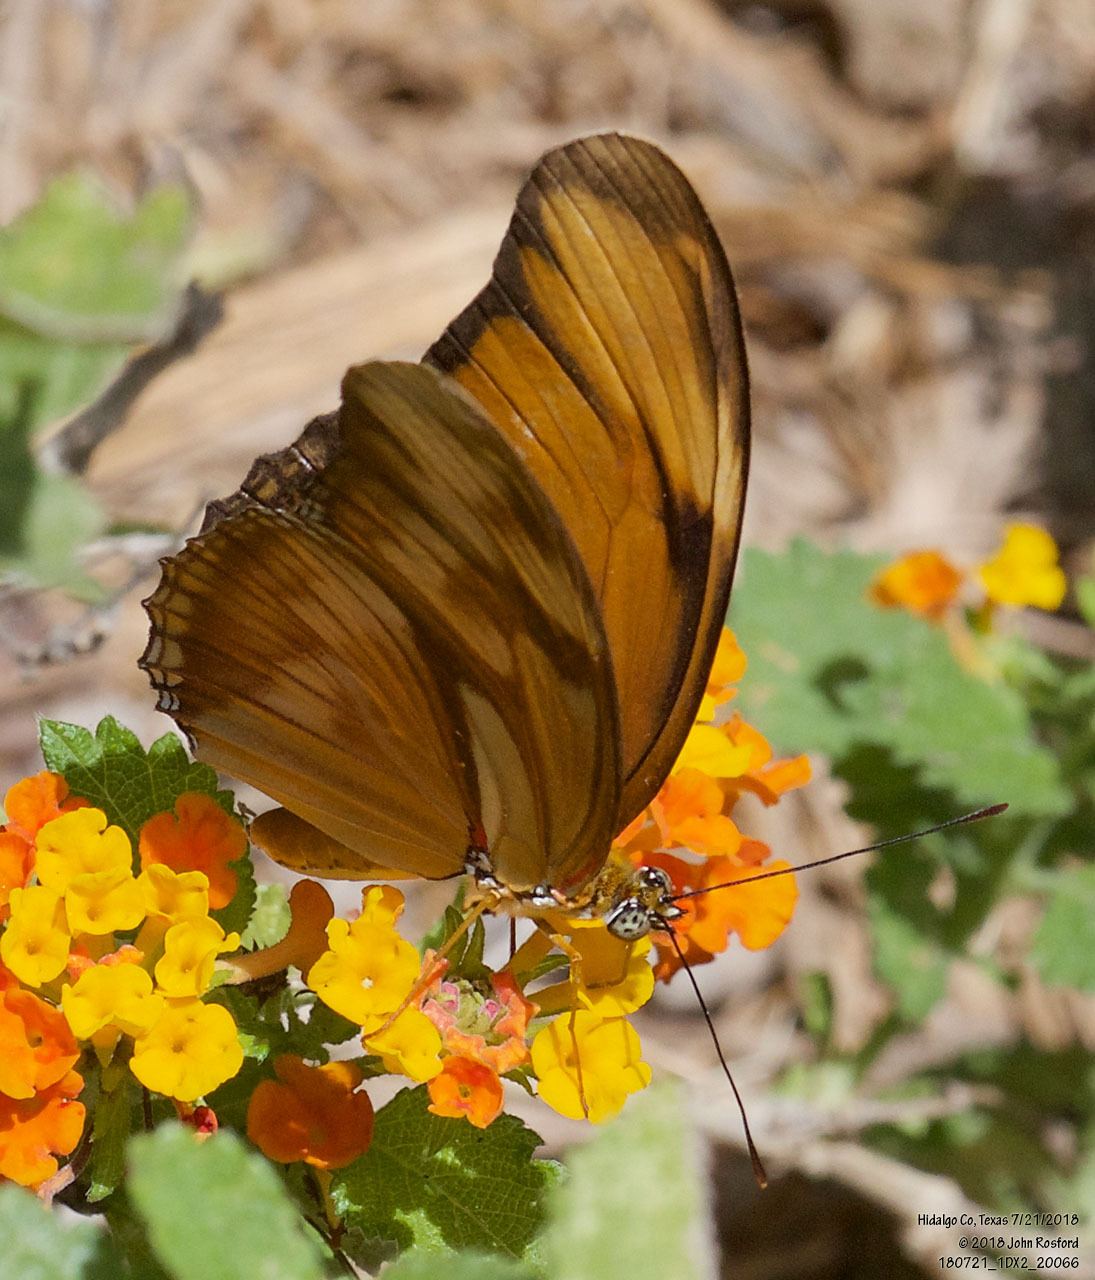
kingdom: Animalia
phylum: Arthropoda
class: Insecta
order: Lepidoptera
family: Nymphalidae
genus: Dryas
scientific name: Dryas iulia
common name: Flambeau
